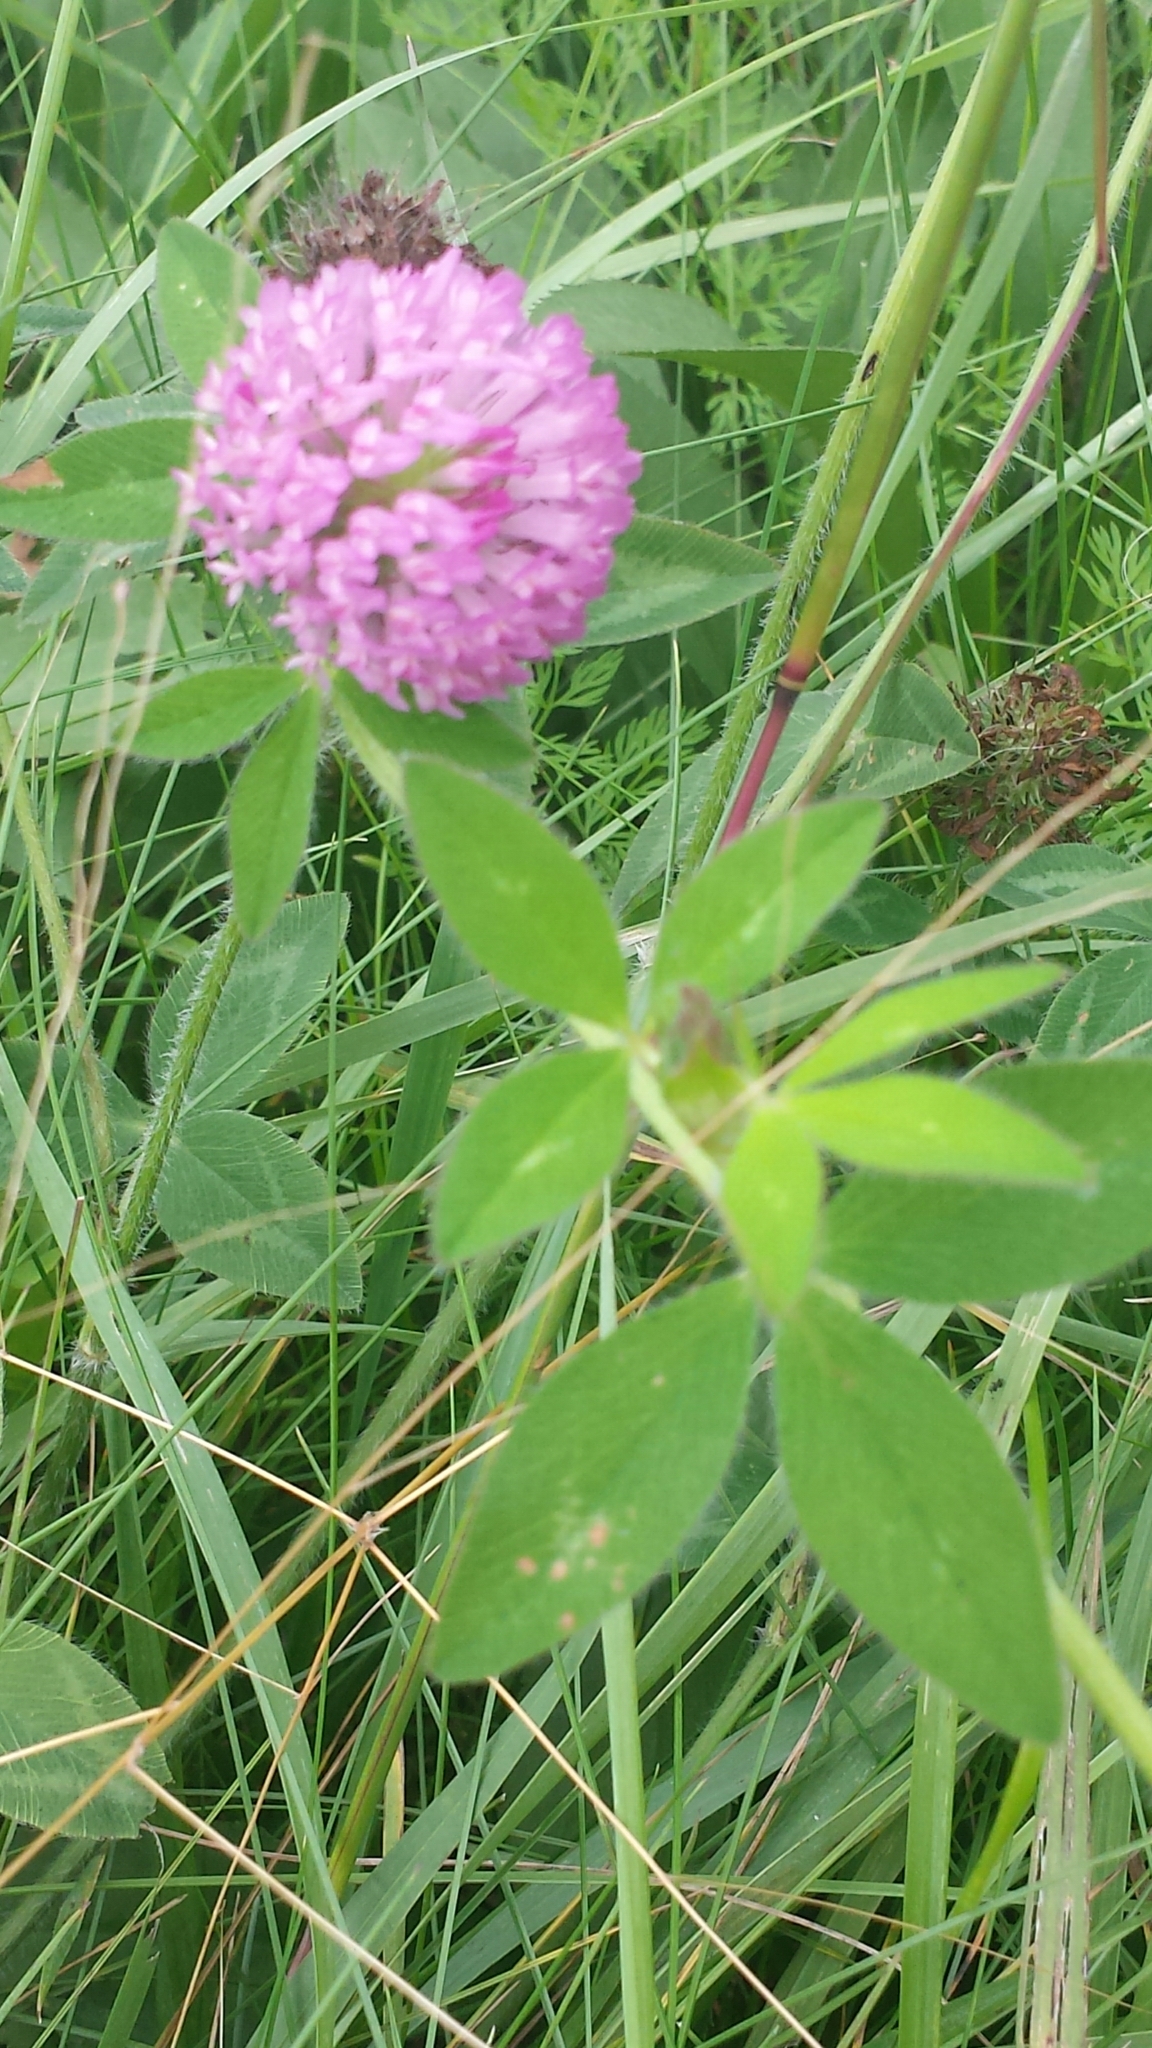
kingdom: Plantae
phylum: Tracheophyta
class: Magnoliopsida
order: Fabales
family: Fabaceae
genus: Trifolium
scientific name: Trifolium pratense
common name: Red clover
